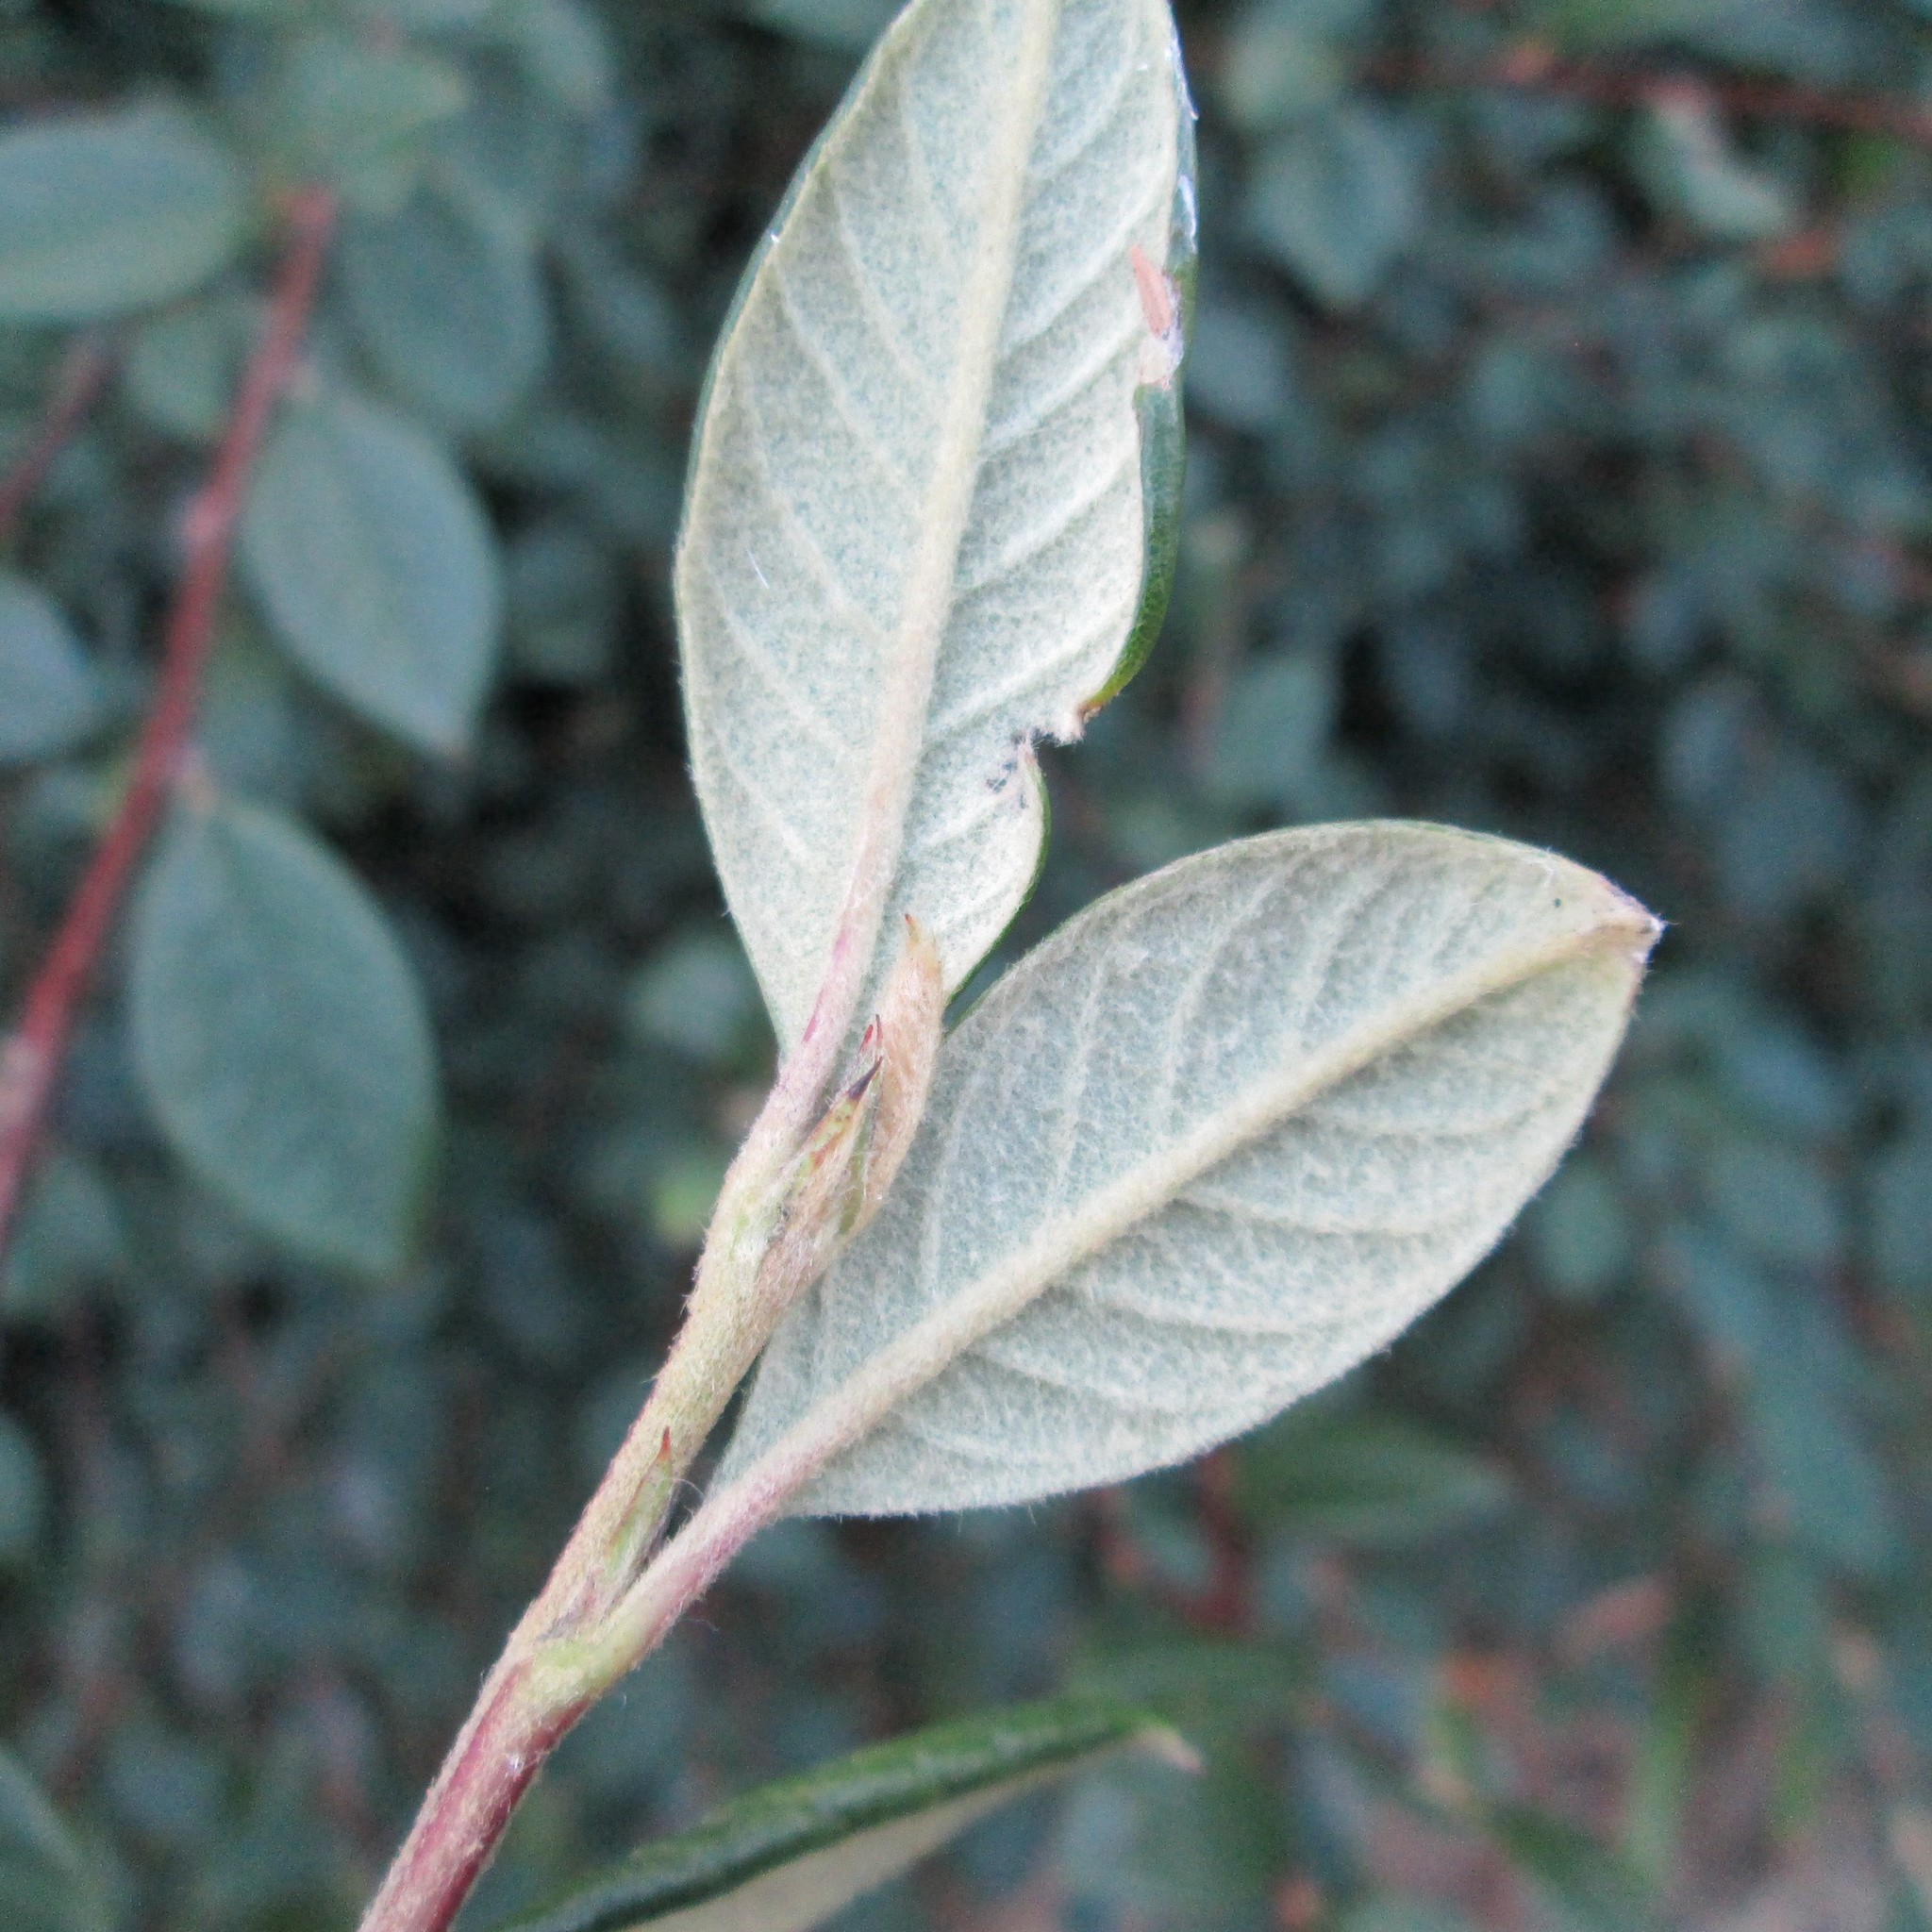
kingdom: Plantae
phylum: Tracheophyta
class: Magnoliopsida
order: Rosales
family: Rosaceae
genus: Cotoneaster
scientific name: Cotoneaster coriaceus
